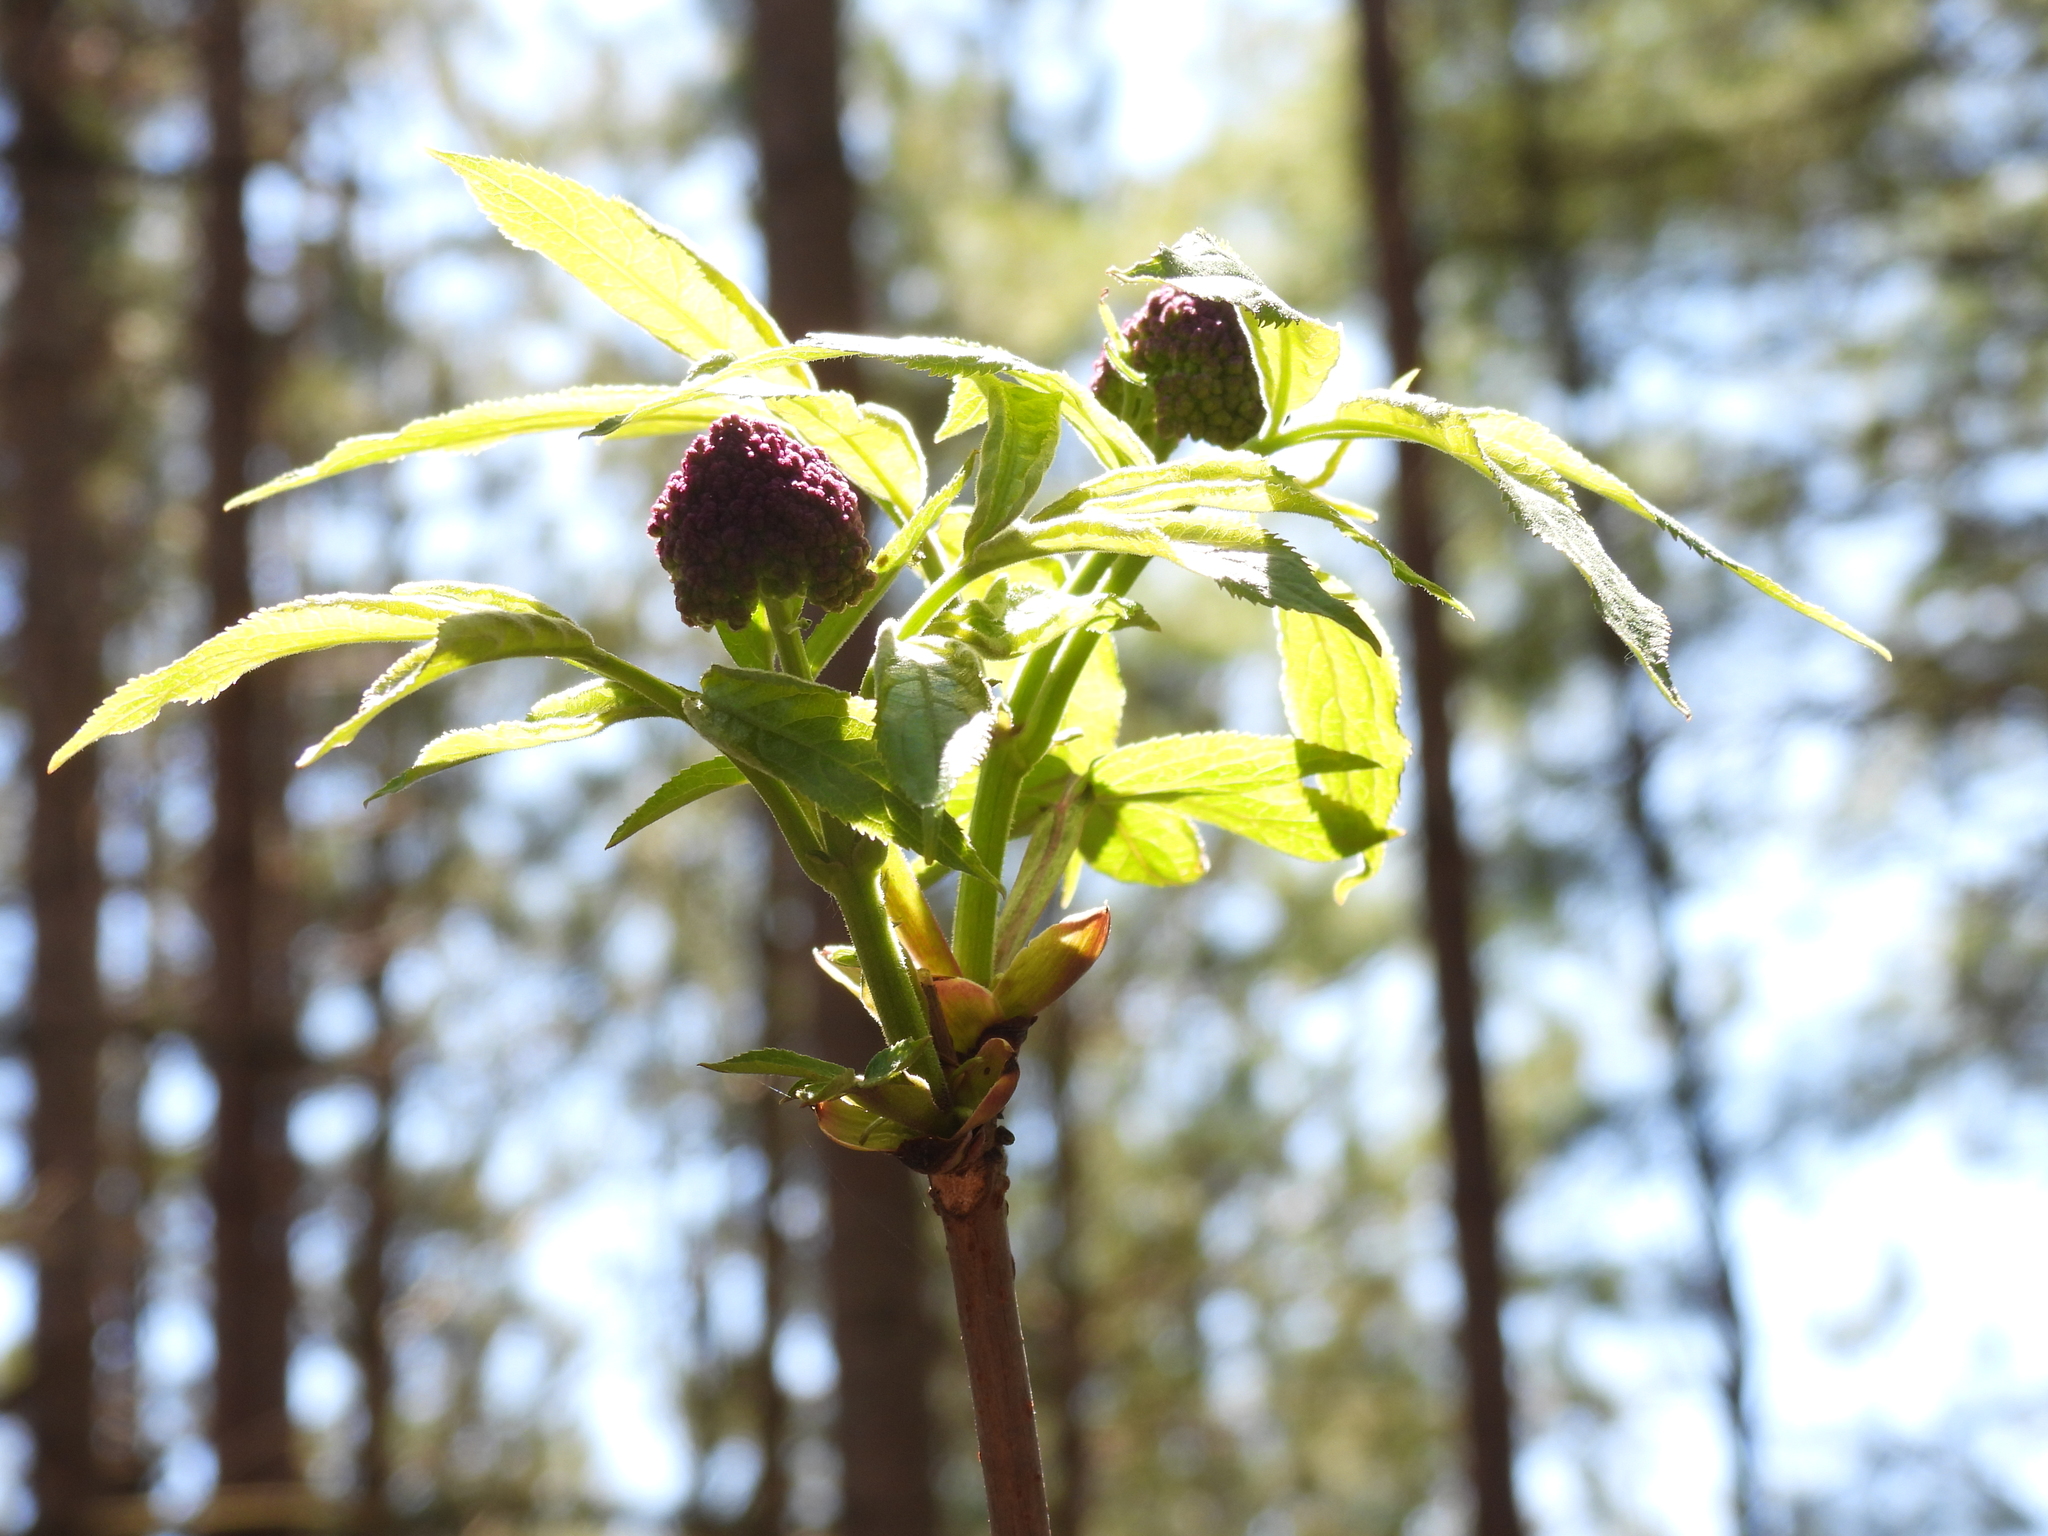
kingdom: Plantae
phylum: Tracheophyta
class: Magnoliopsida
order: Dipsacales
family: Viburnaceae
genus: Sambucus
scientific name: Sambucus racemosa
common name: Red-berried elder
